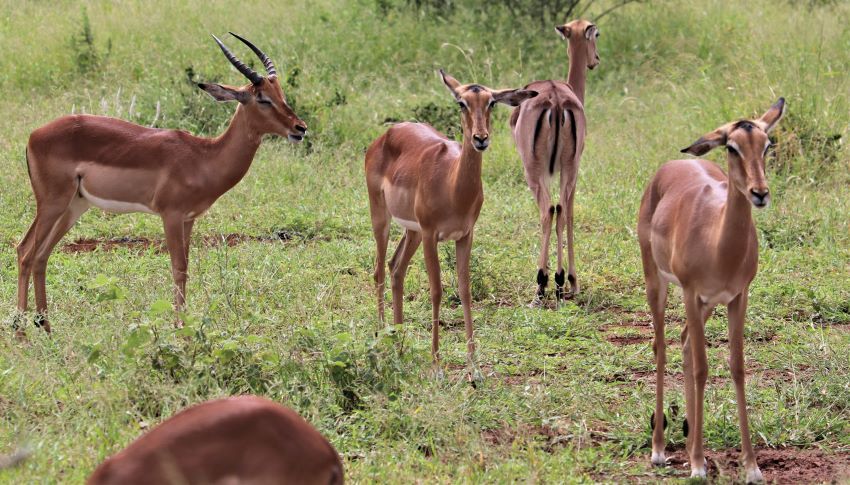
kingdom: Animalia
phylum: Chordata
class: Mammalia
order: Artiodactyla
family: Bovidae
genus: Aepyceros
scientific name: Aepyceros melampus
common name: Impala
